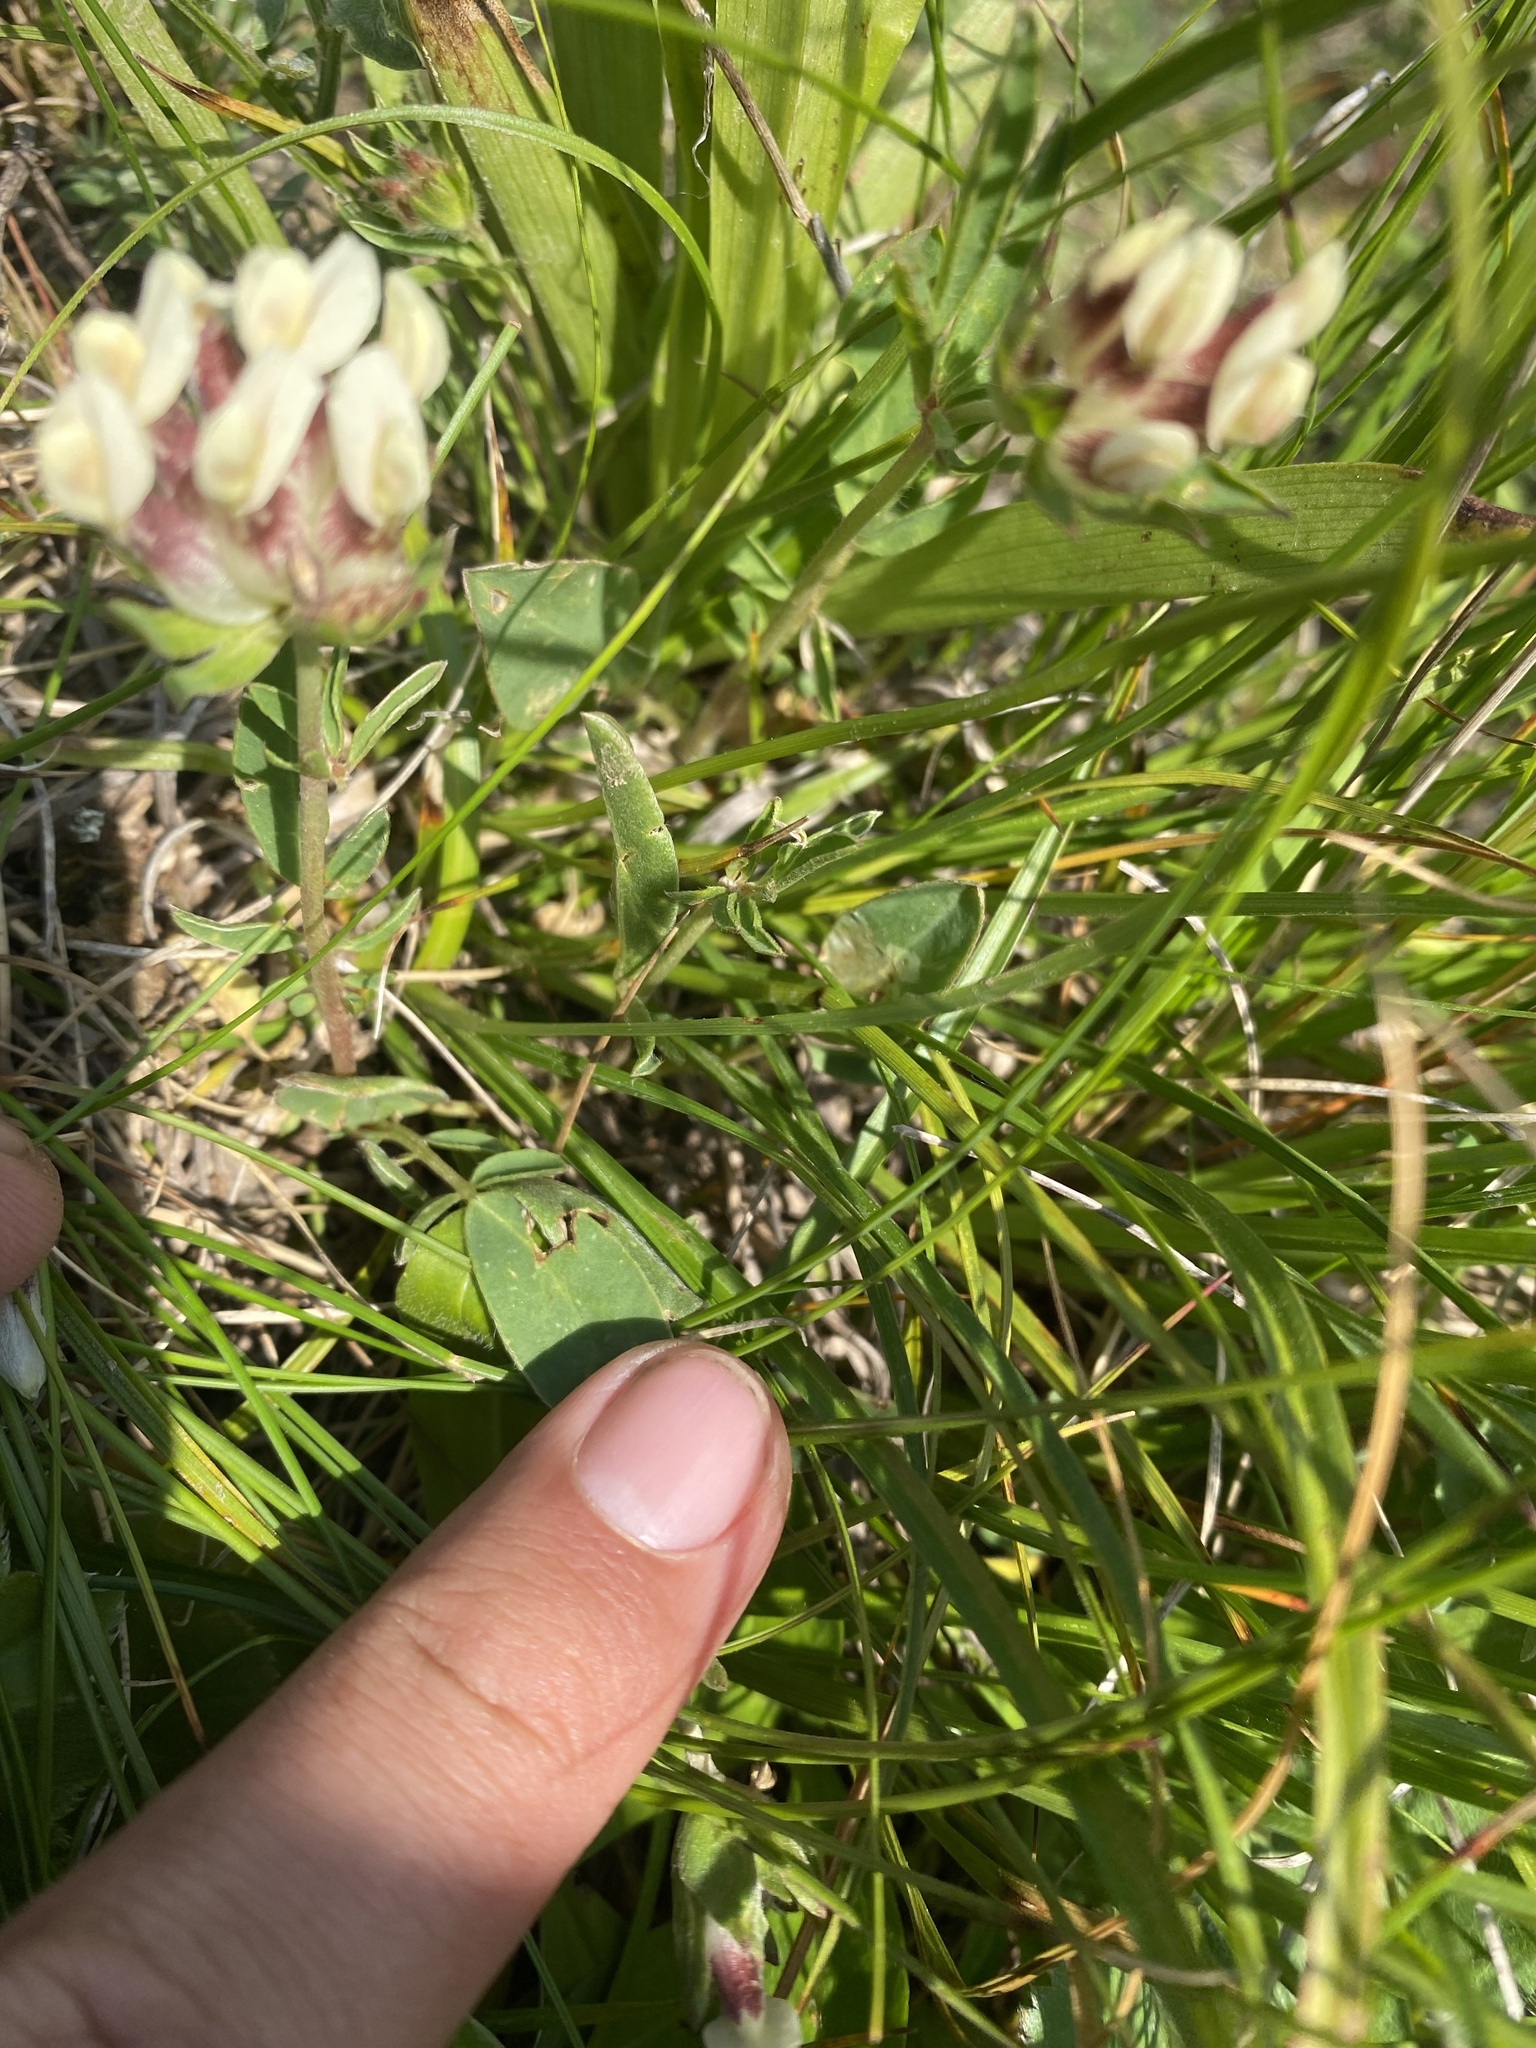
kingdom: Plantae
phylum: Tracheophyta
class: Magnoliopsida
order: Fabales
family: Fabaceae
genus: Anthyllis
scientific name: Anthyllis vulneraria
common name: Kidney vetch
